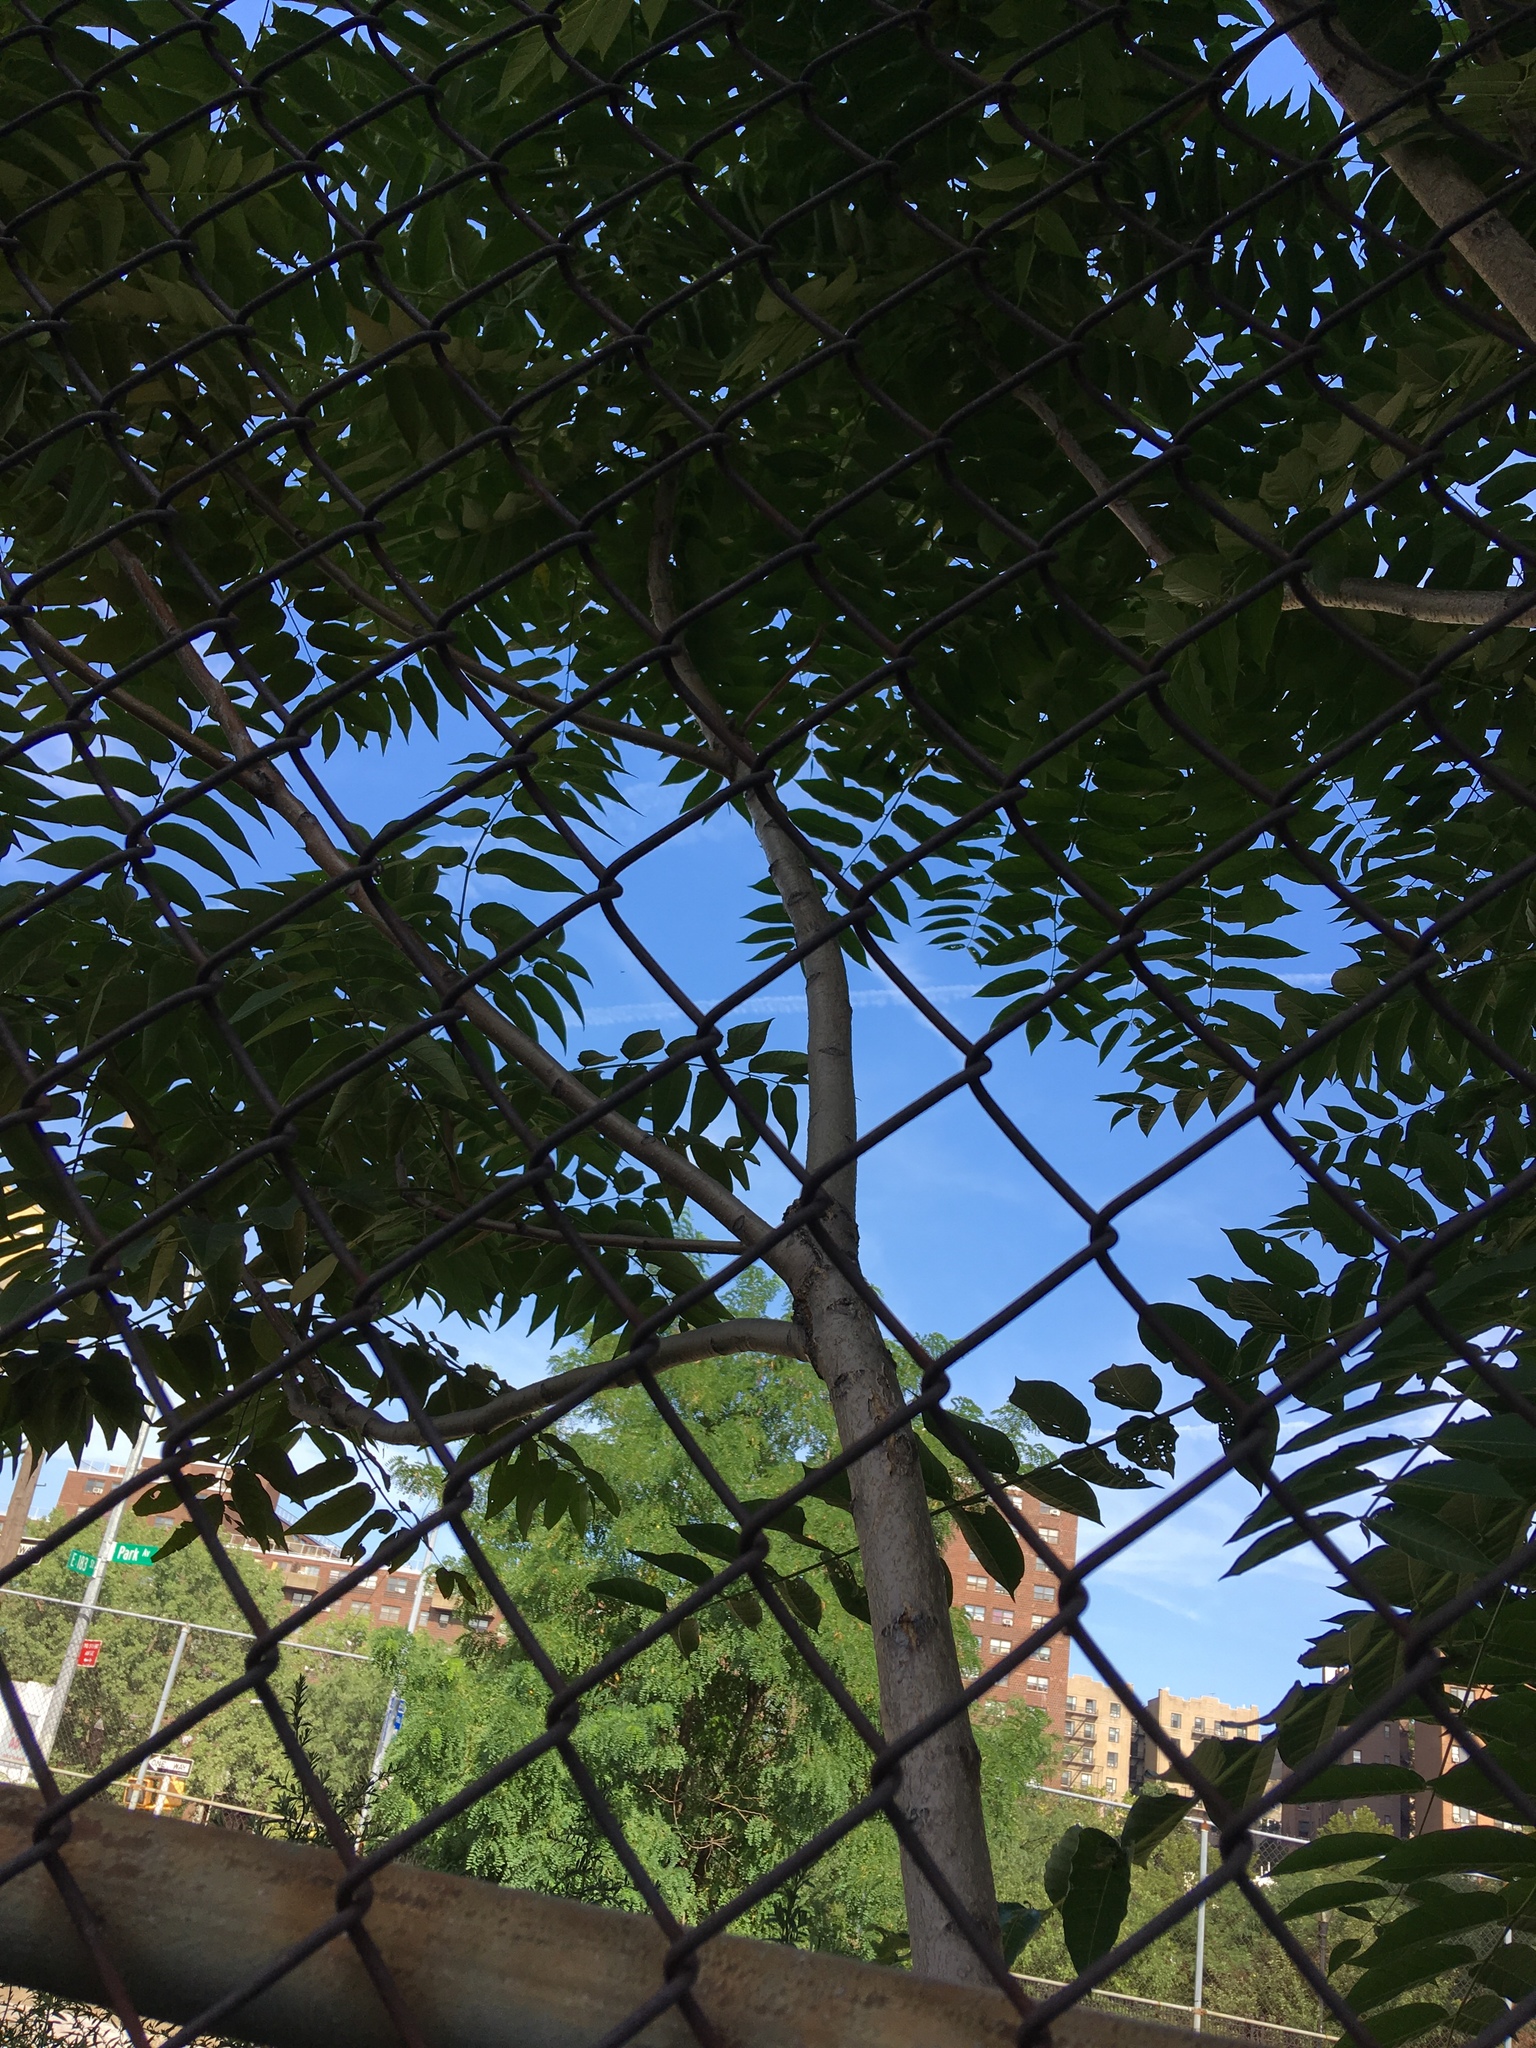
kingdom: Plantae
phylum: Tracheophyta
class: Magnoliopsida
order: Sapindales
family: Simaroubaceae
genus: Ailanthus
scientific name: Ailanthus altissima
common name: Tree-of-heaven
